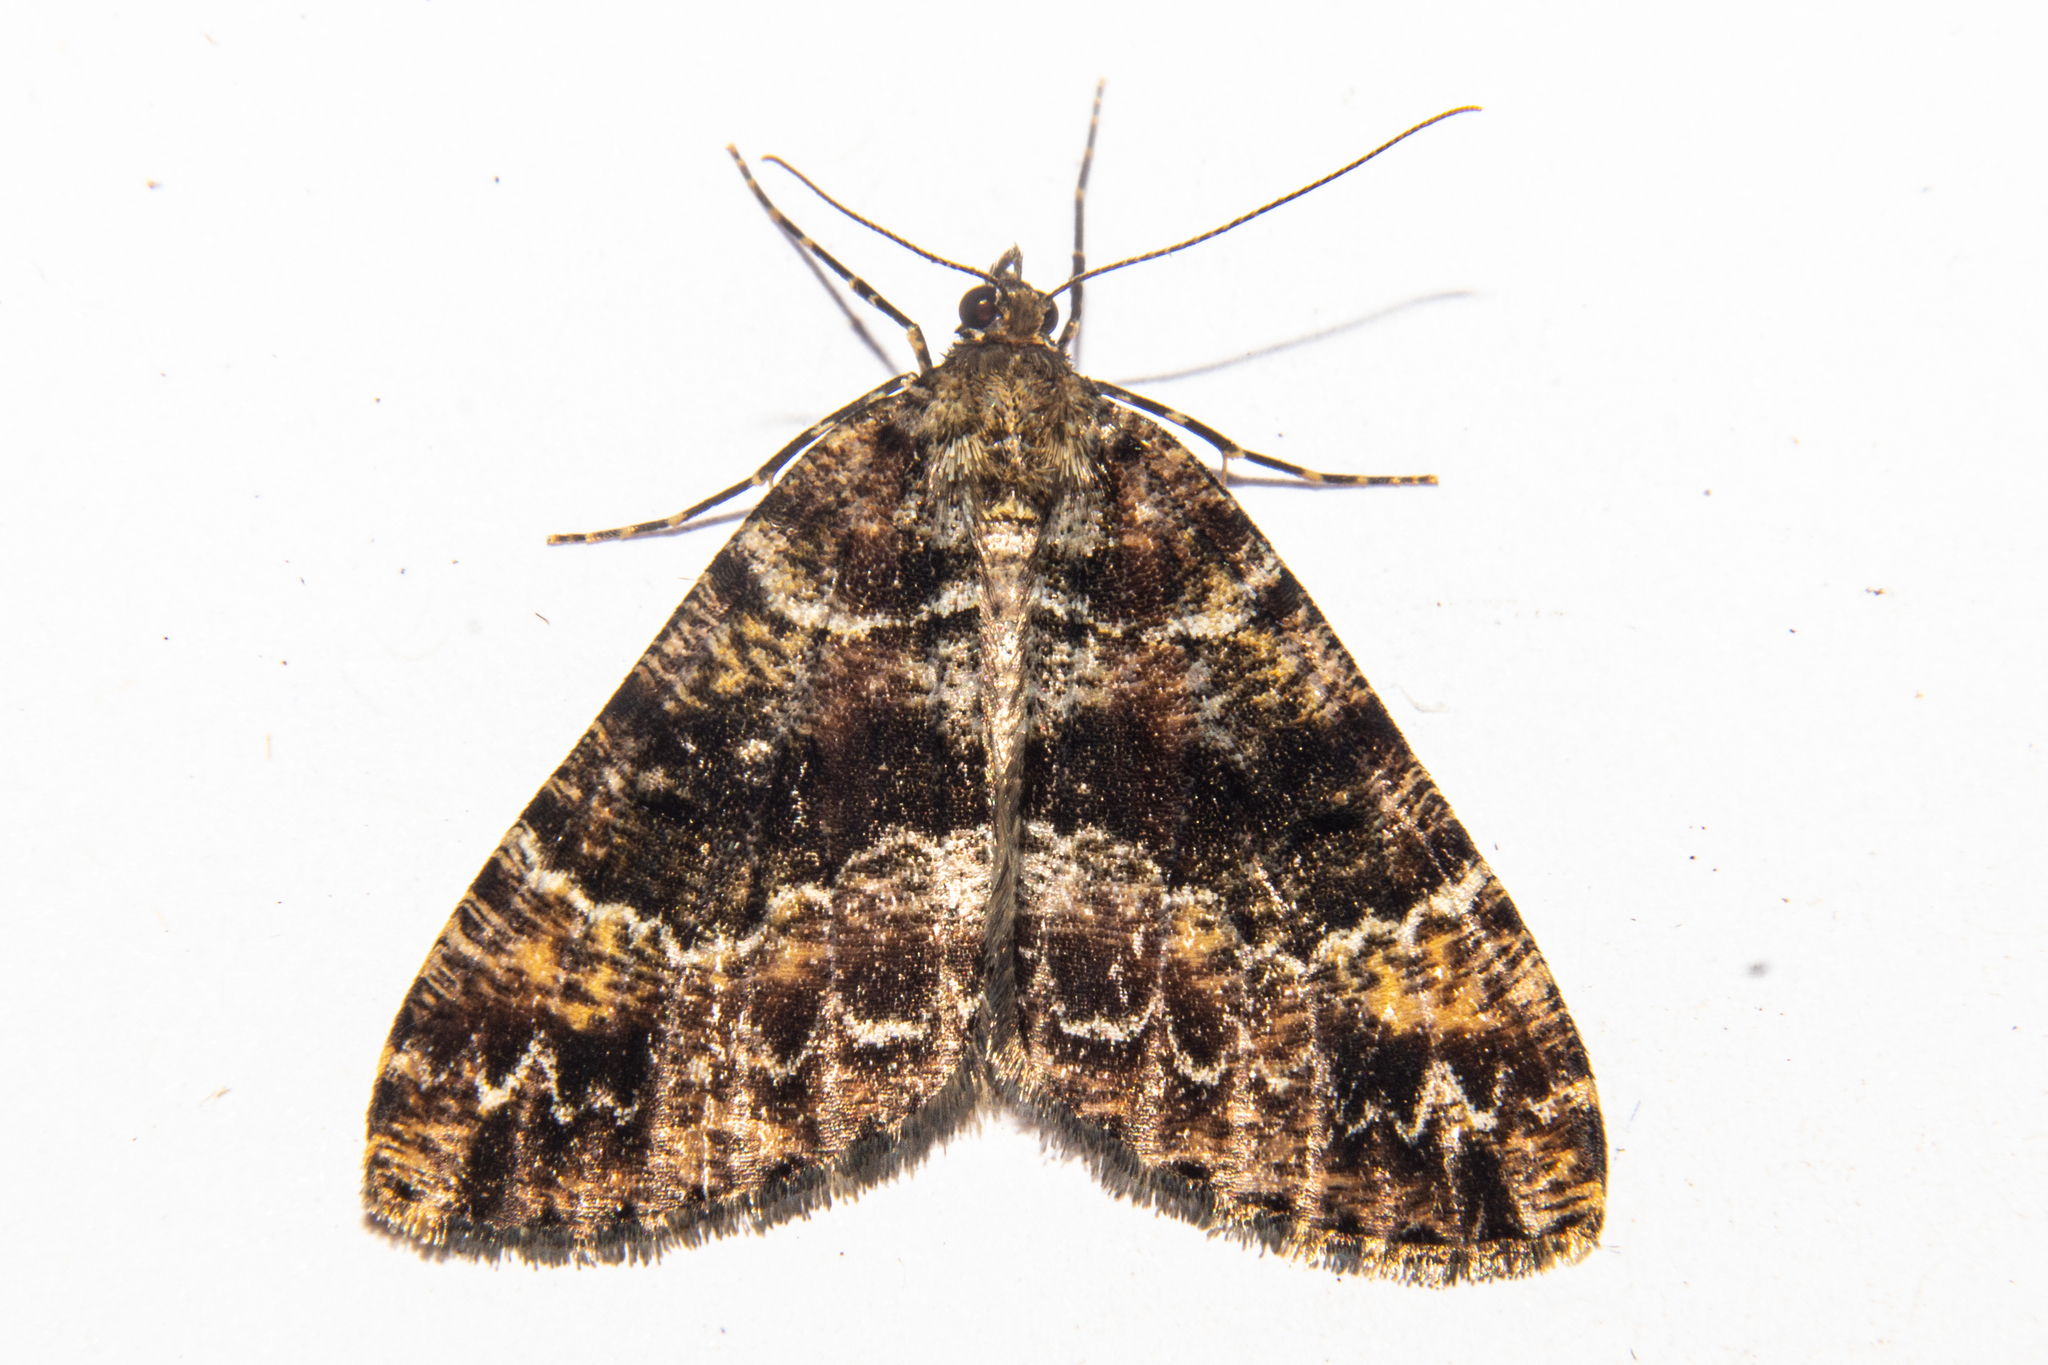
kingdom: Animalia
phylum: Arthropoda
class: Insecta
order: Lepidoptera
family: Geometridae
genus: Pseudocoremia
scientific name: Pseudocoremia productata
